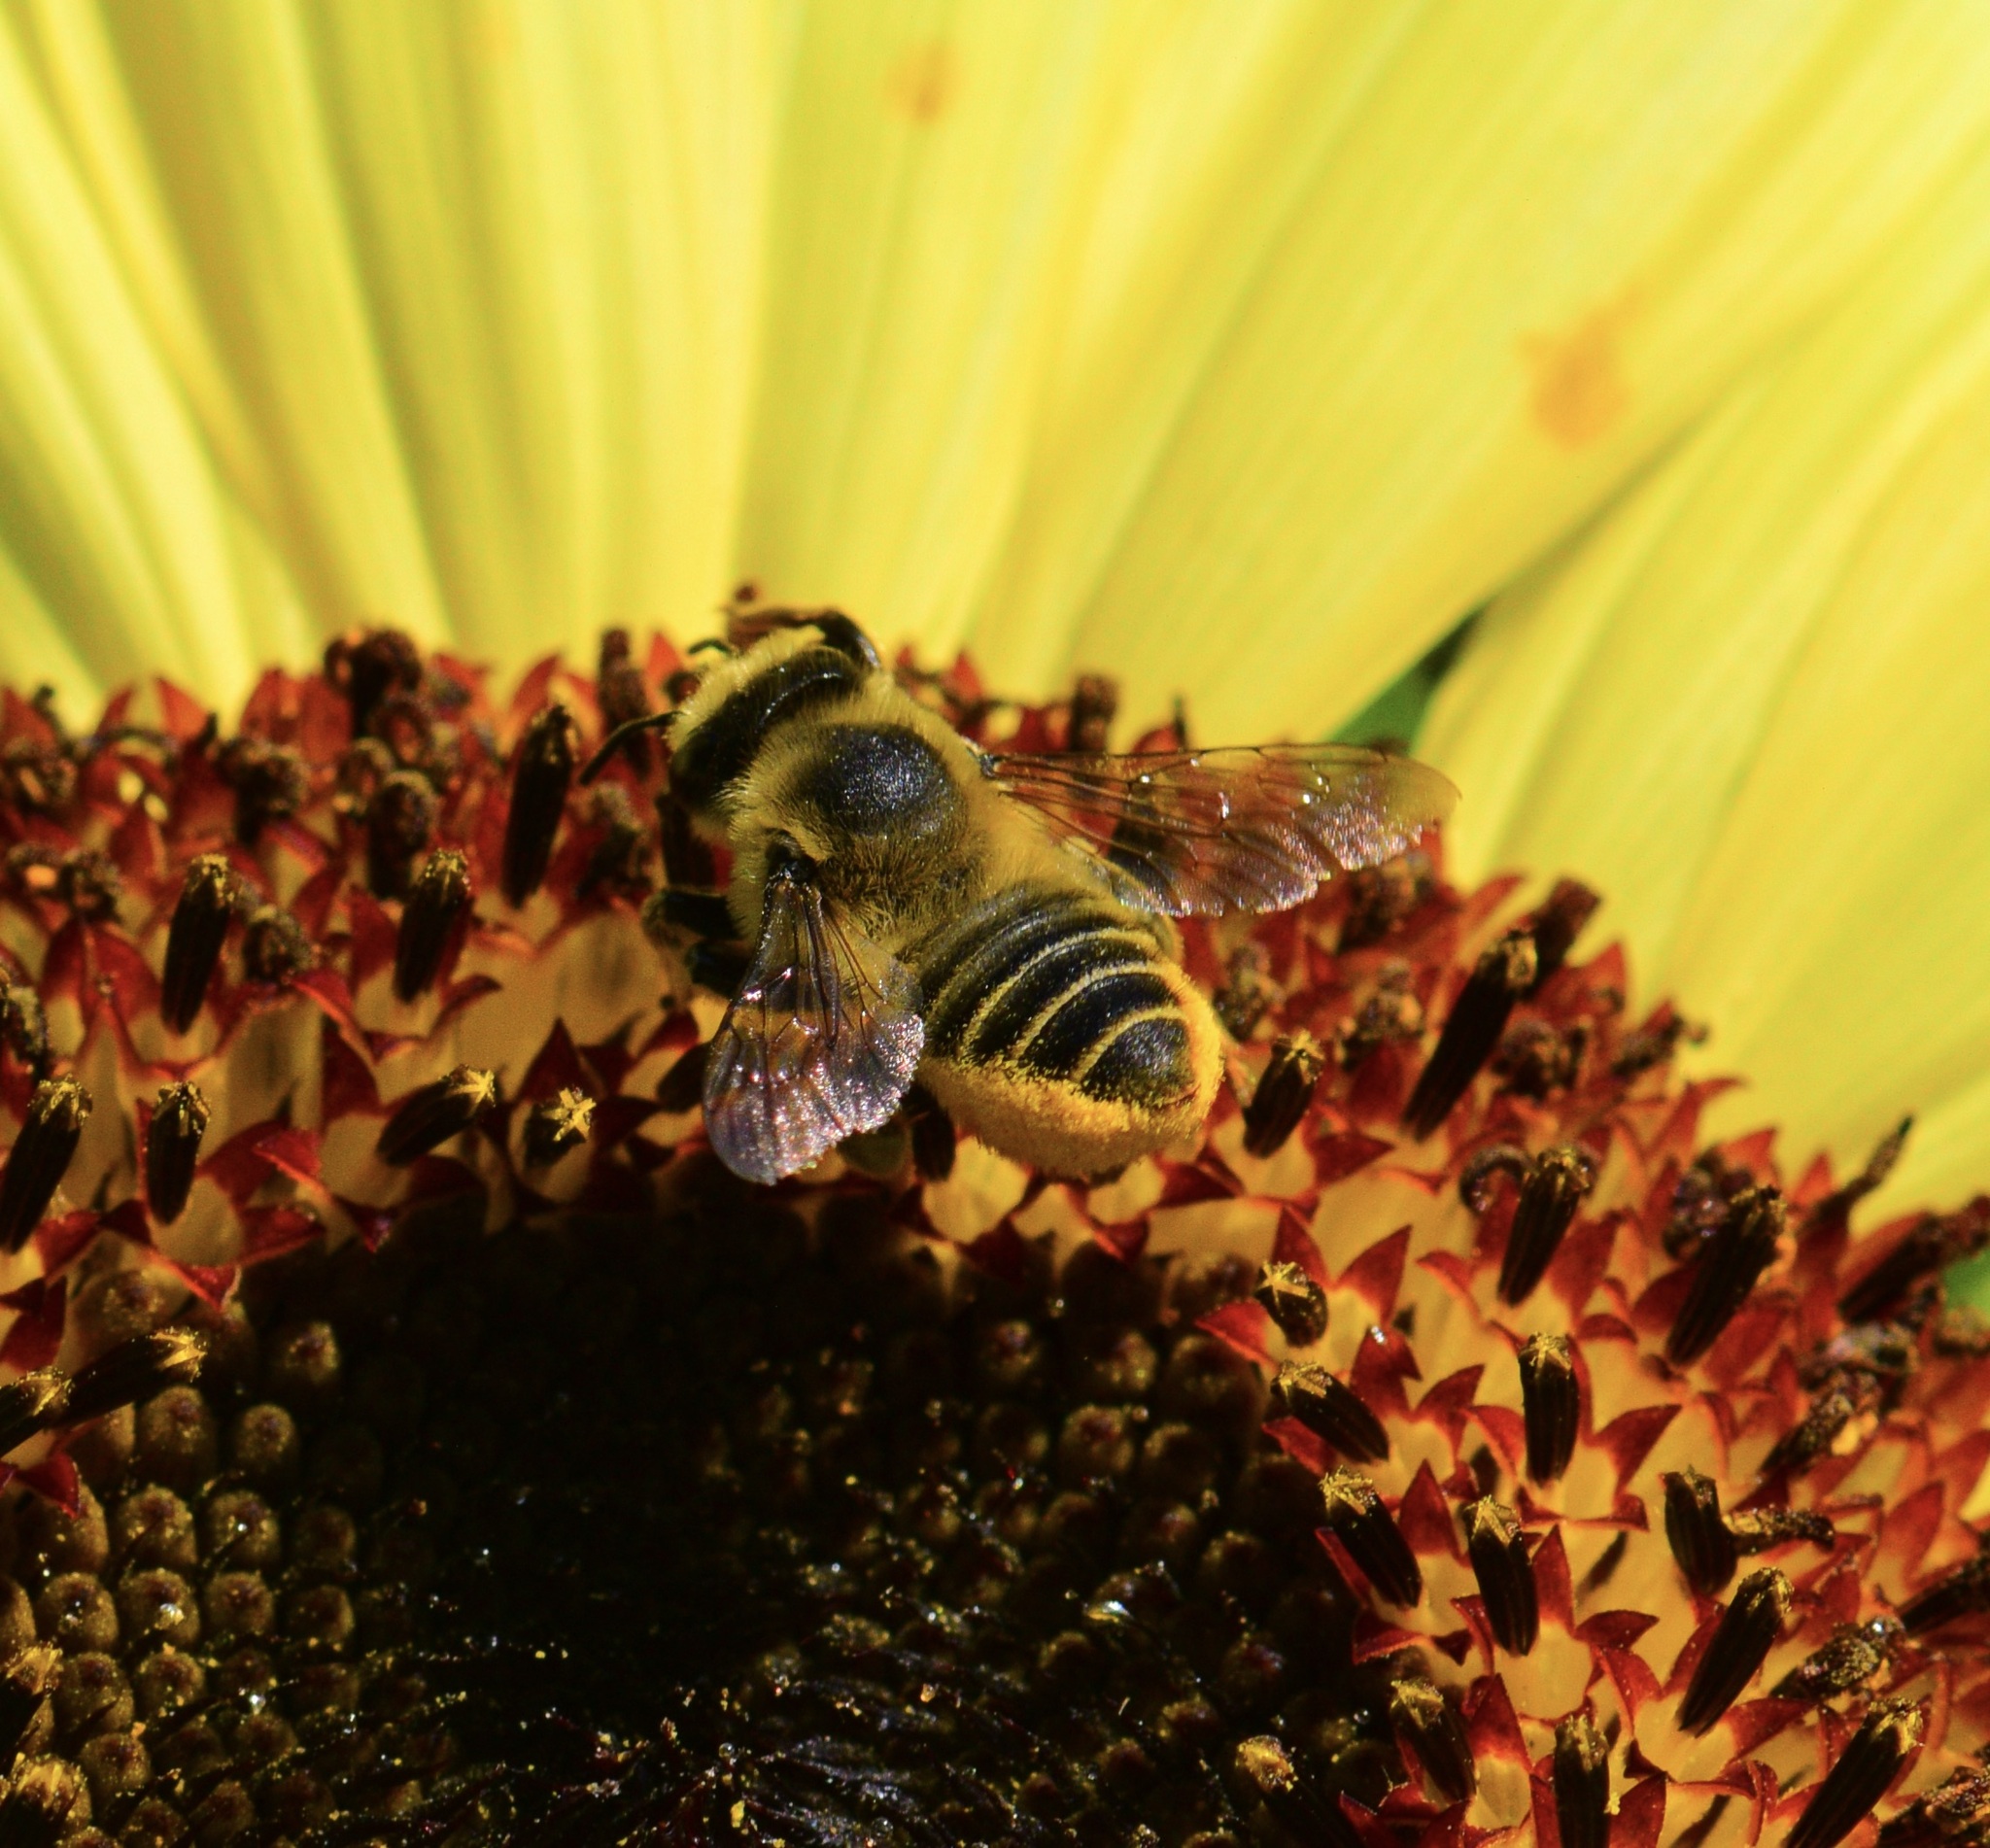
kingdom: Animalia
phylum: Arthropoda
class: Insecta
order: Hymenoptera
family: Megachilidae
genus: Megachile
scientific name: Megachile latimanus
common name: Leafcutting bee
